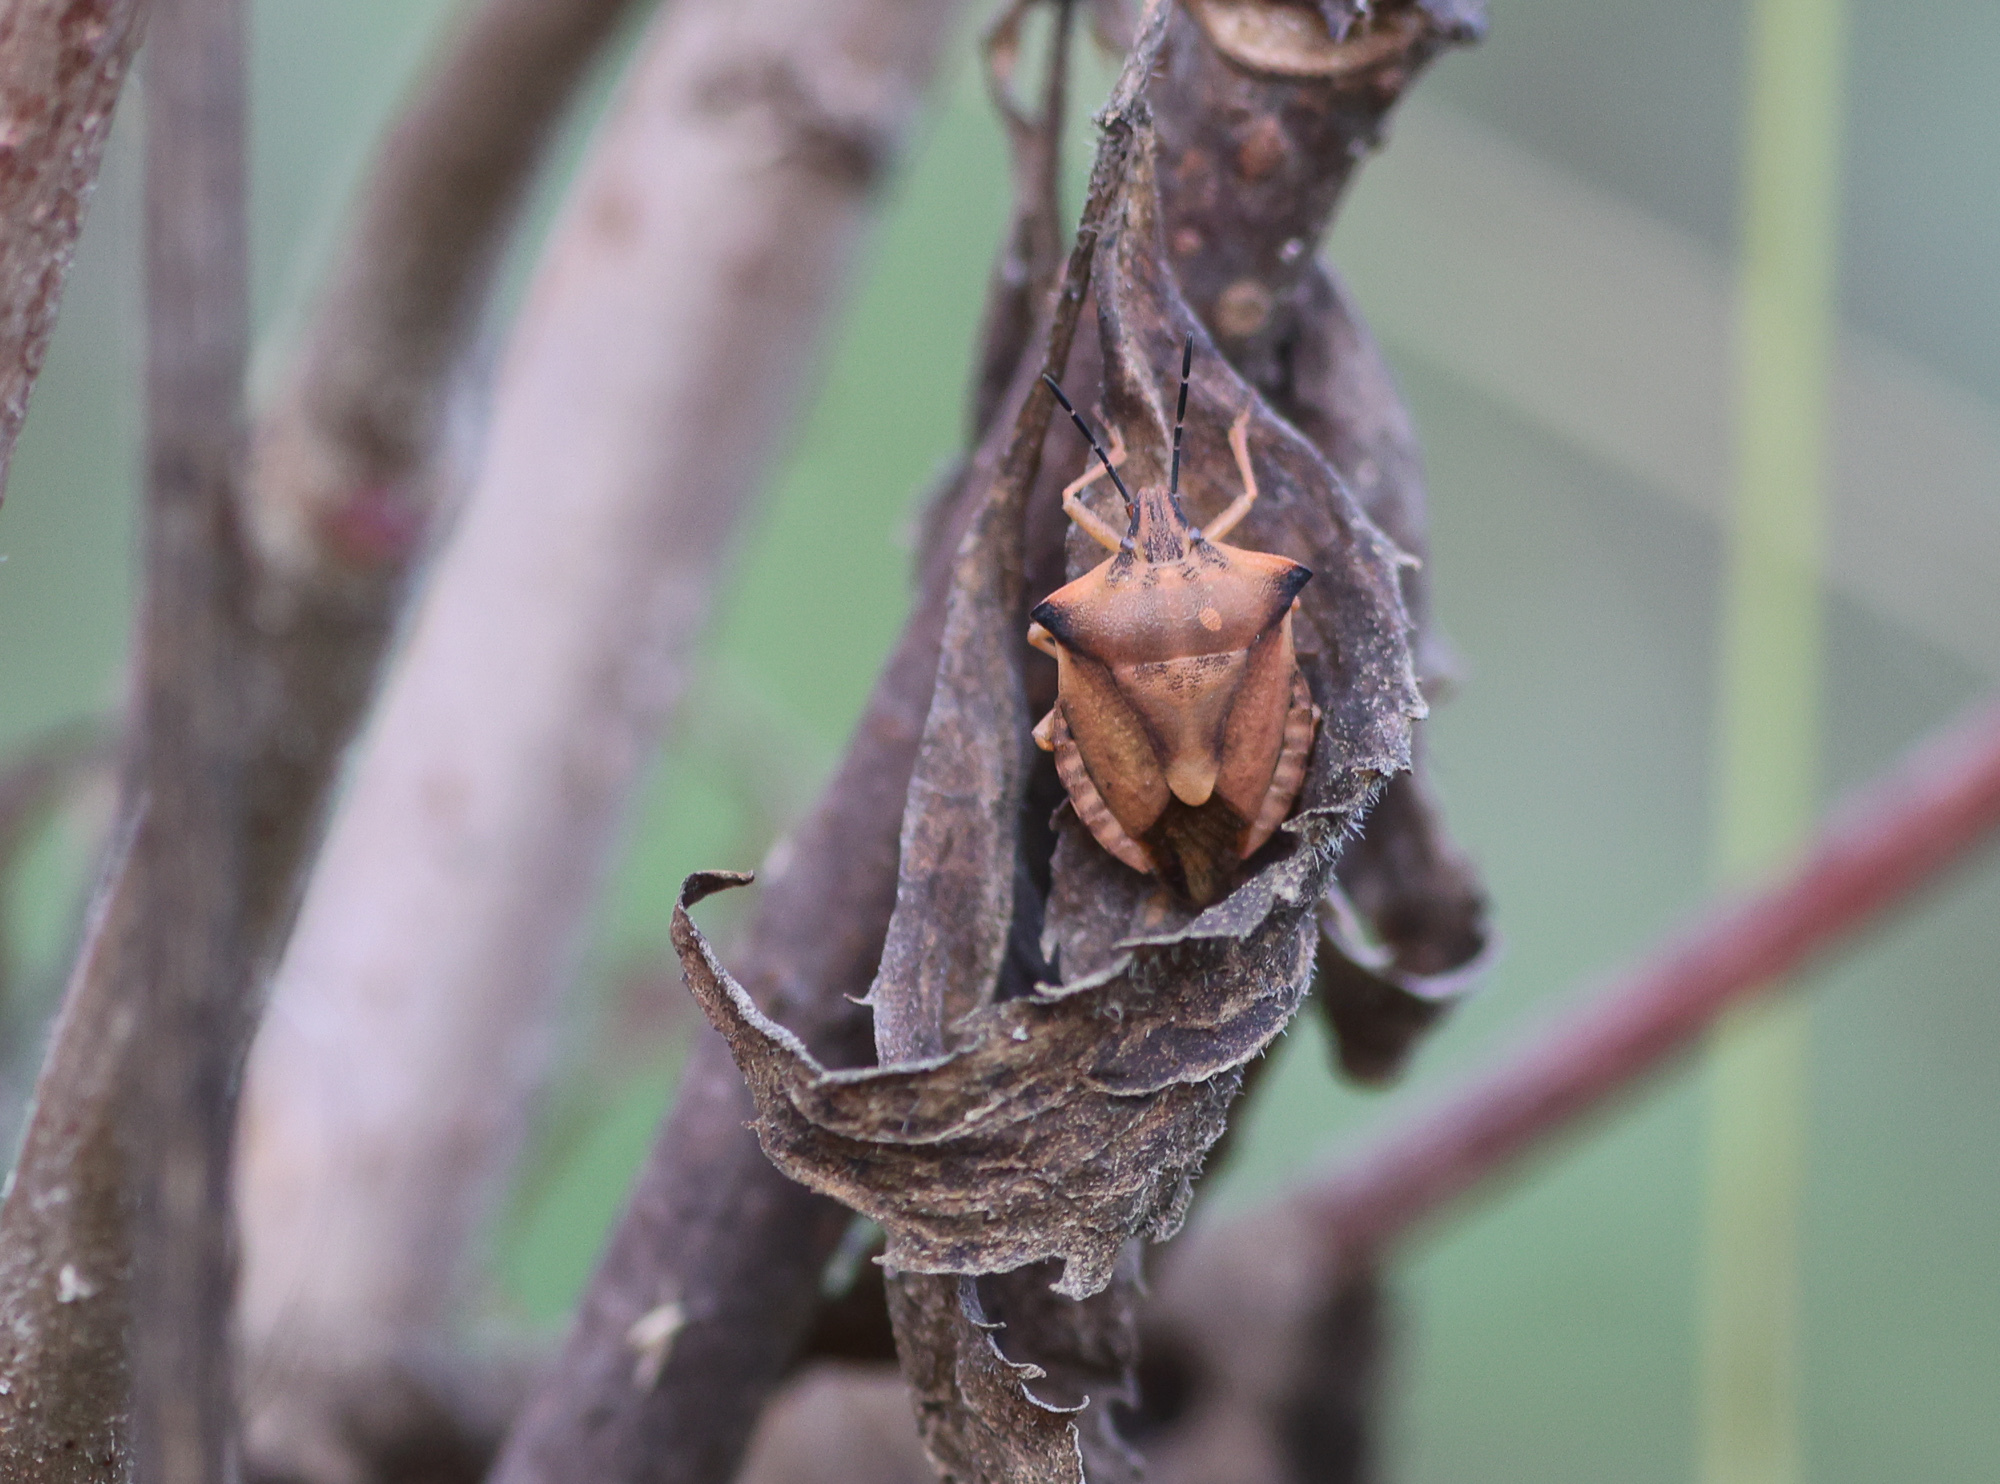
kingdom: Animalia
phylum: Arthropoda
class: Insecta
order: Hemiptera
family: Pentatomidae
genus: Carpocoris
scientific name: Carpocoris fuscispinus
